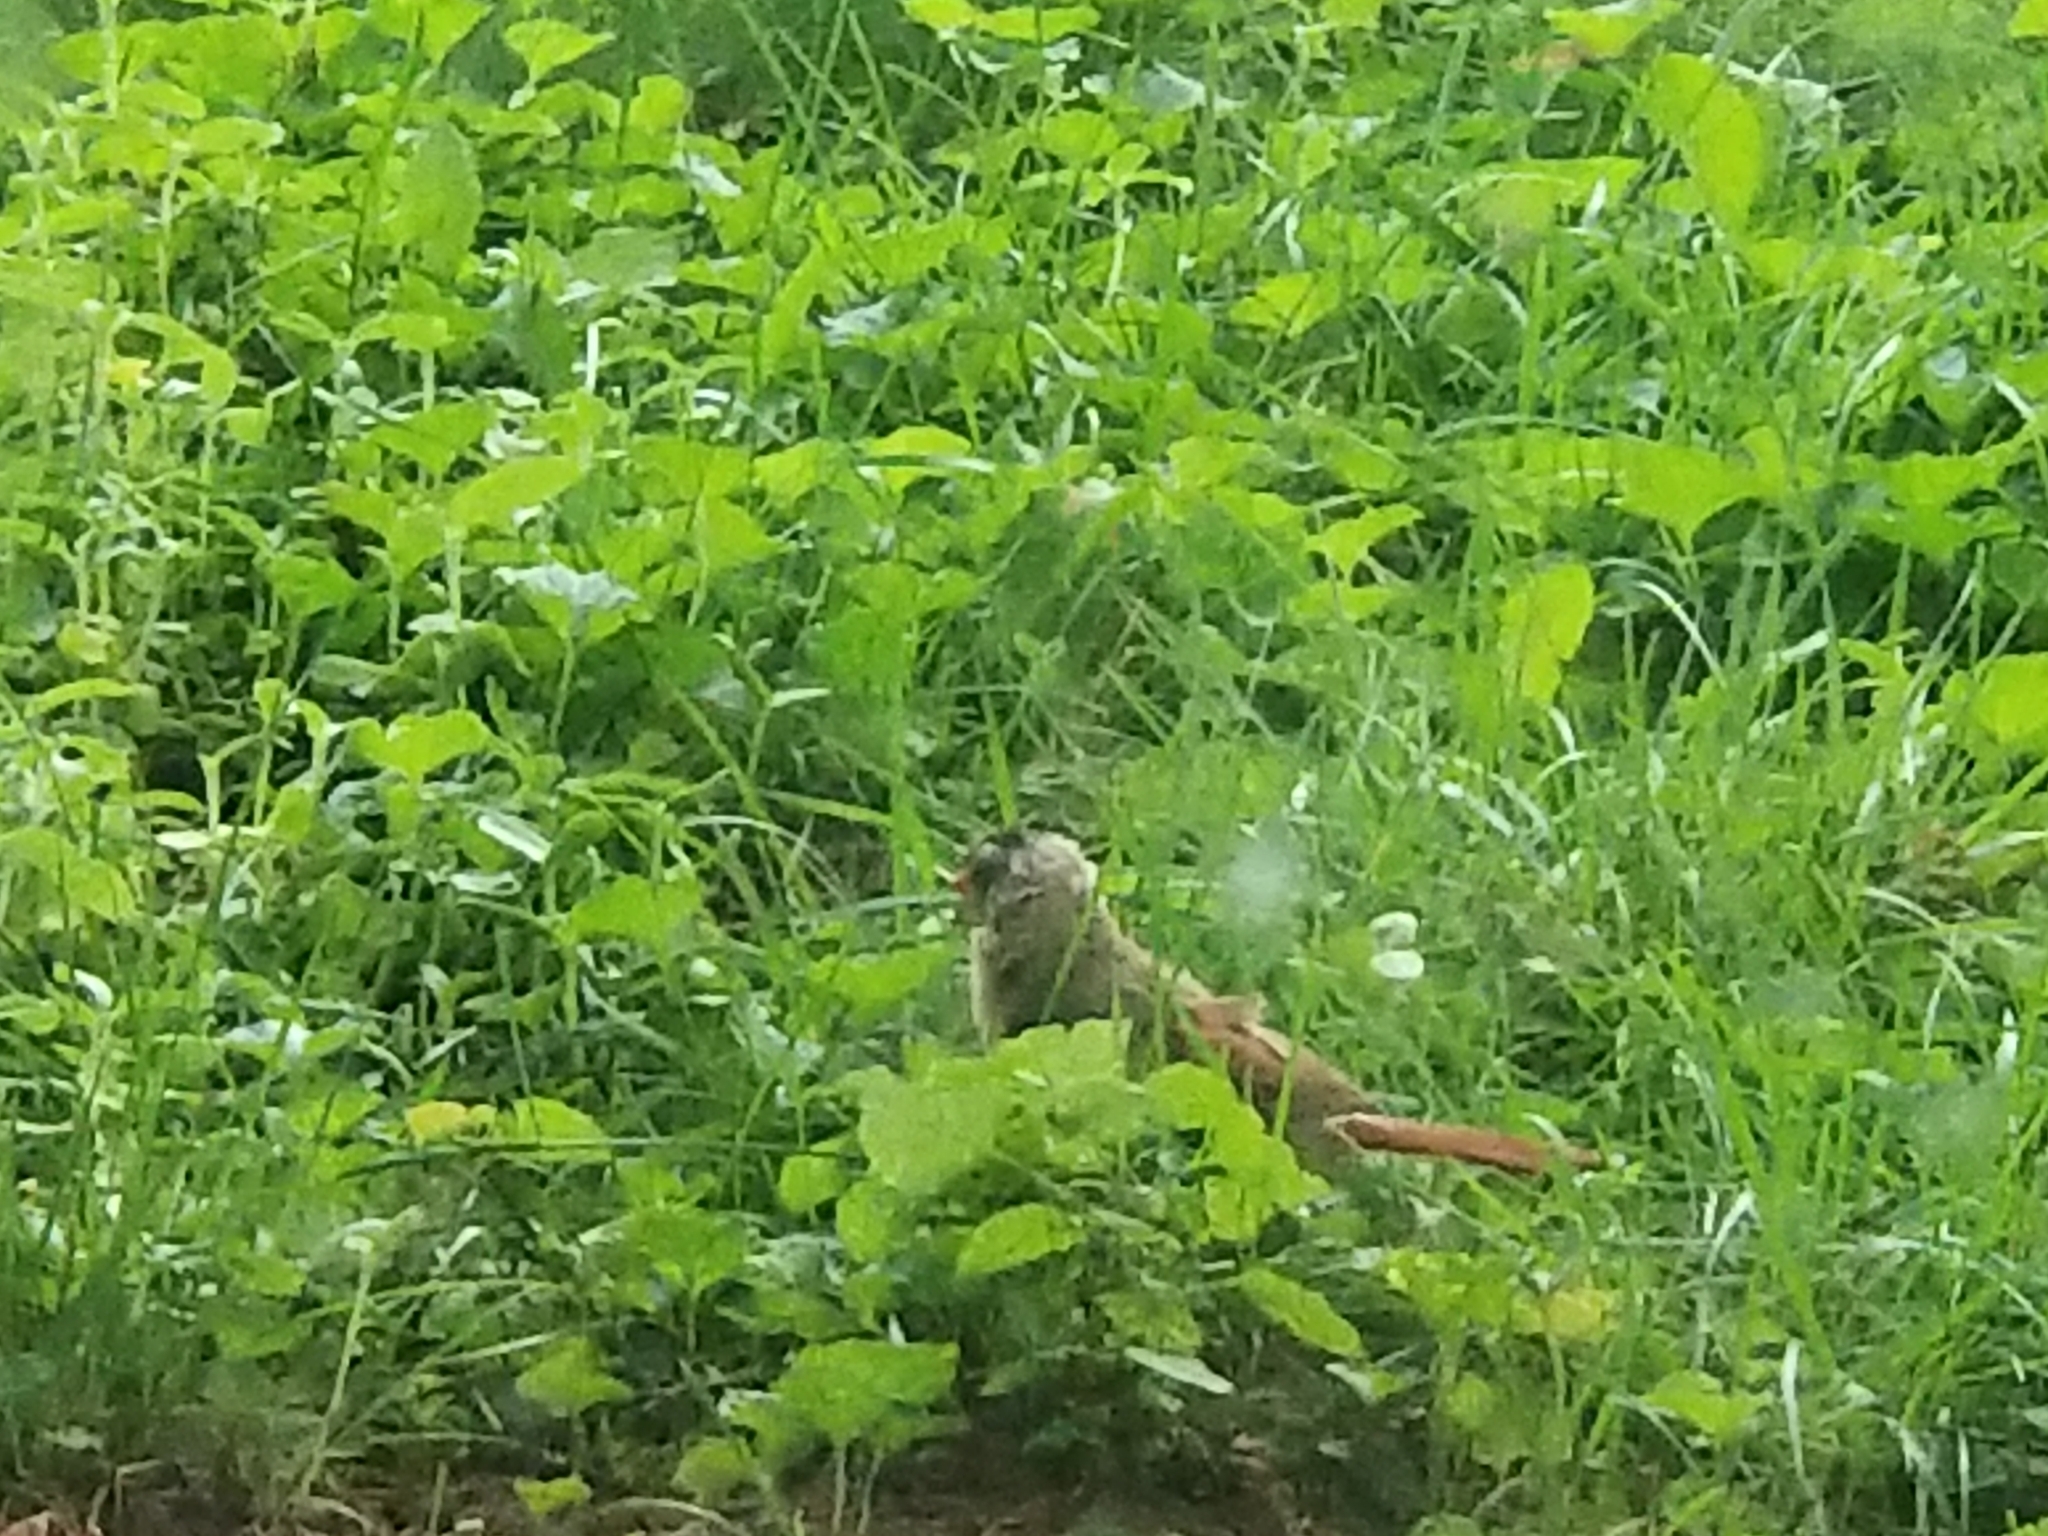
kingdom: Animalia
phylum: Chordata
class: Aves
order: Passeriformes
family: Cardinalidae
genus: Cardinalis
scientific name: Cardinalis cardinalis
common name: Northern cardinal
